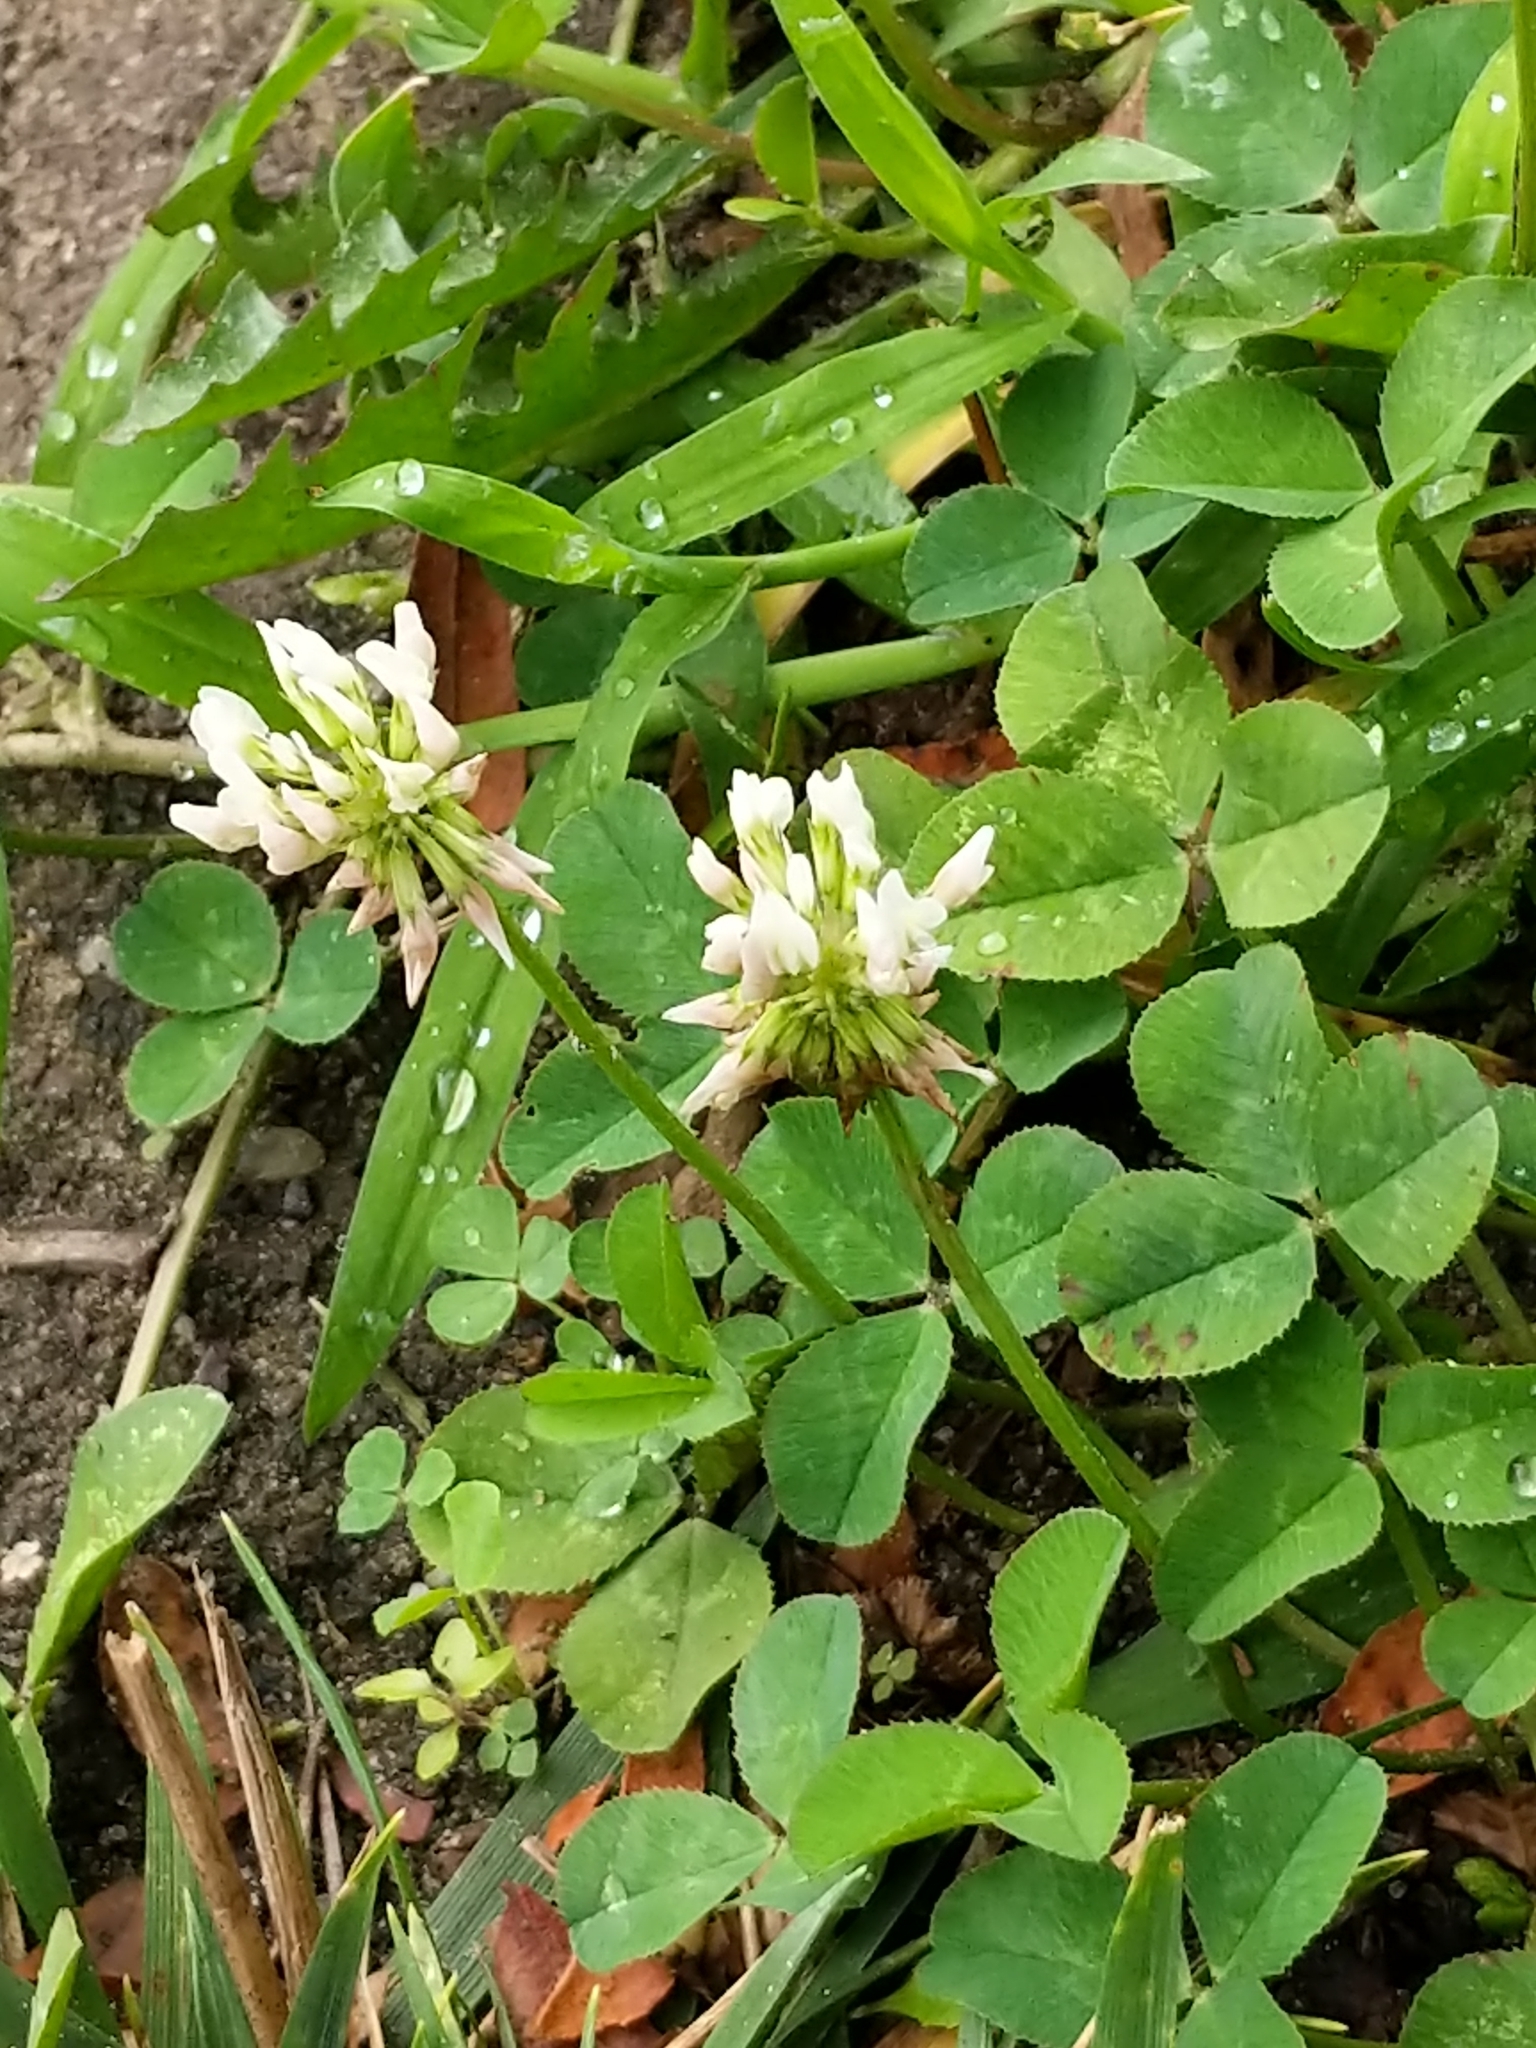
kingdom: Plantae
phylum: Tracheophyta
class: Magnoliopsida
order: Fabales
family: Fabaceae
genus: Trifolium
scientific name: Trifolium repens
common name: White clover
